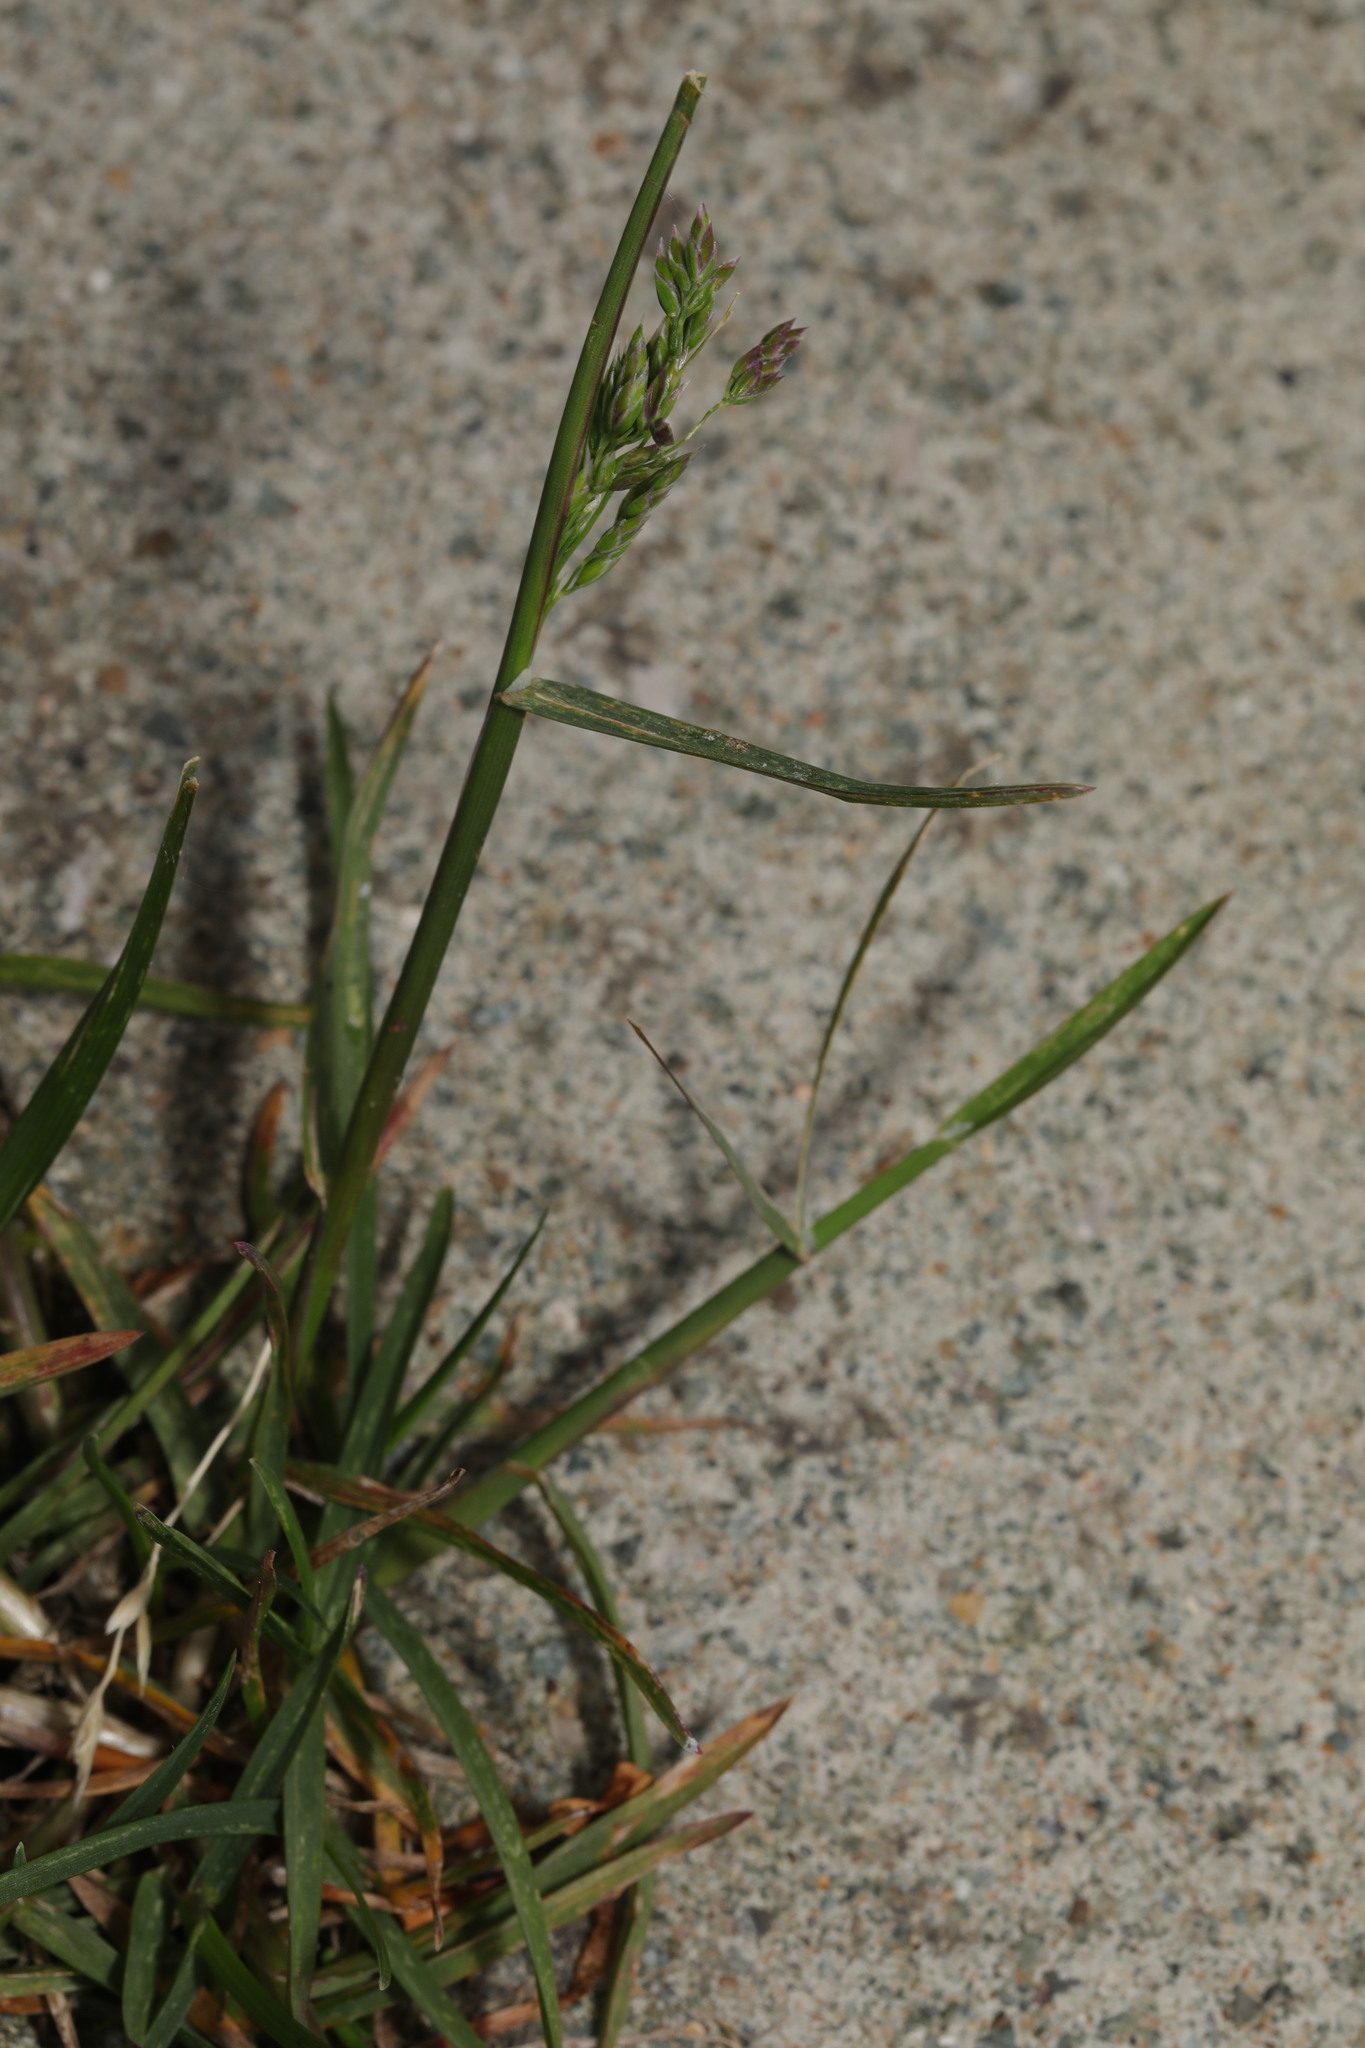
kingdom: Plantae
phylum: Tracheophyta
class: Liliopsida
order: Poales
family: Poaceae
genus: Poa
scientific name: Poa annua
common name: Annual bluegrass
